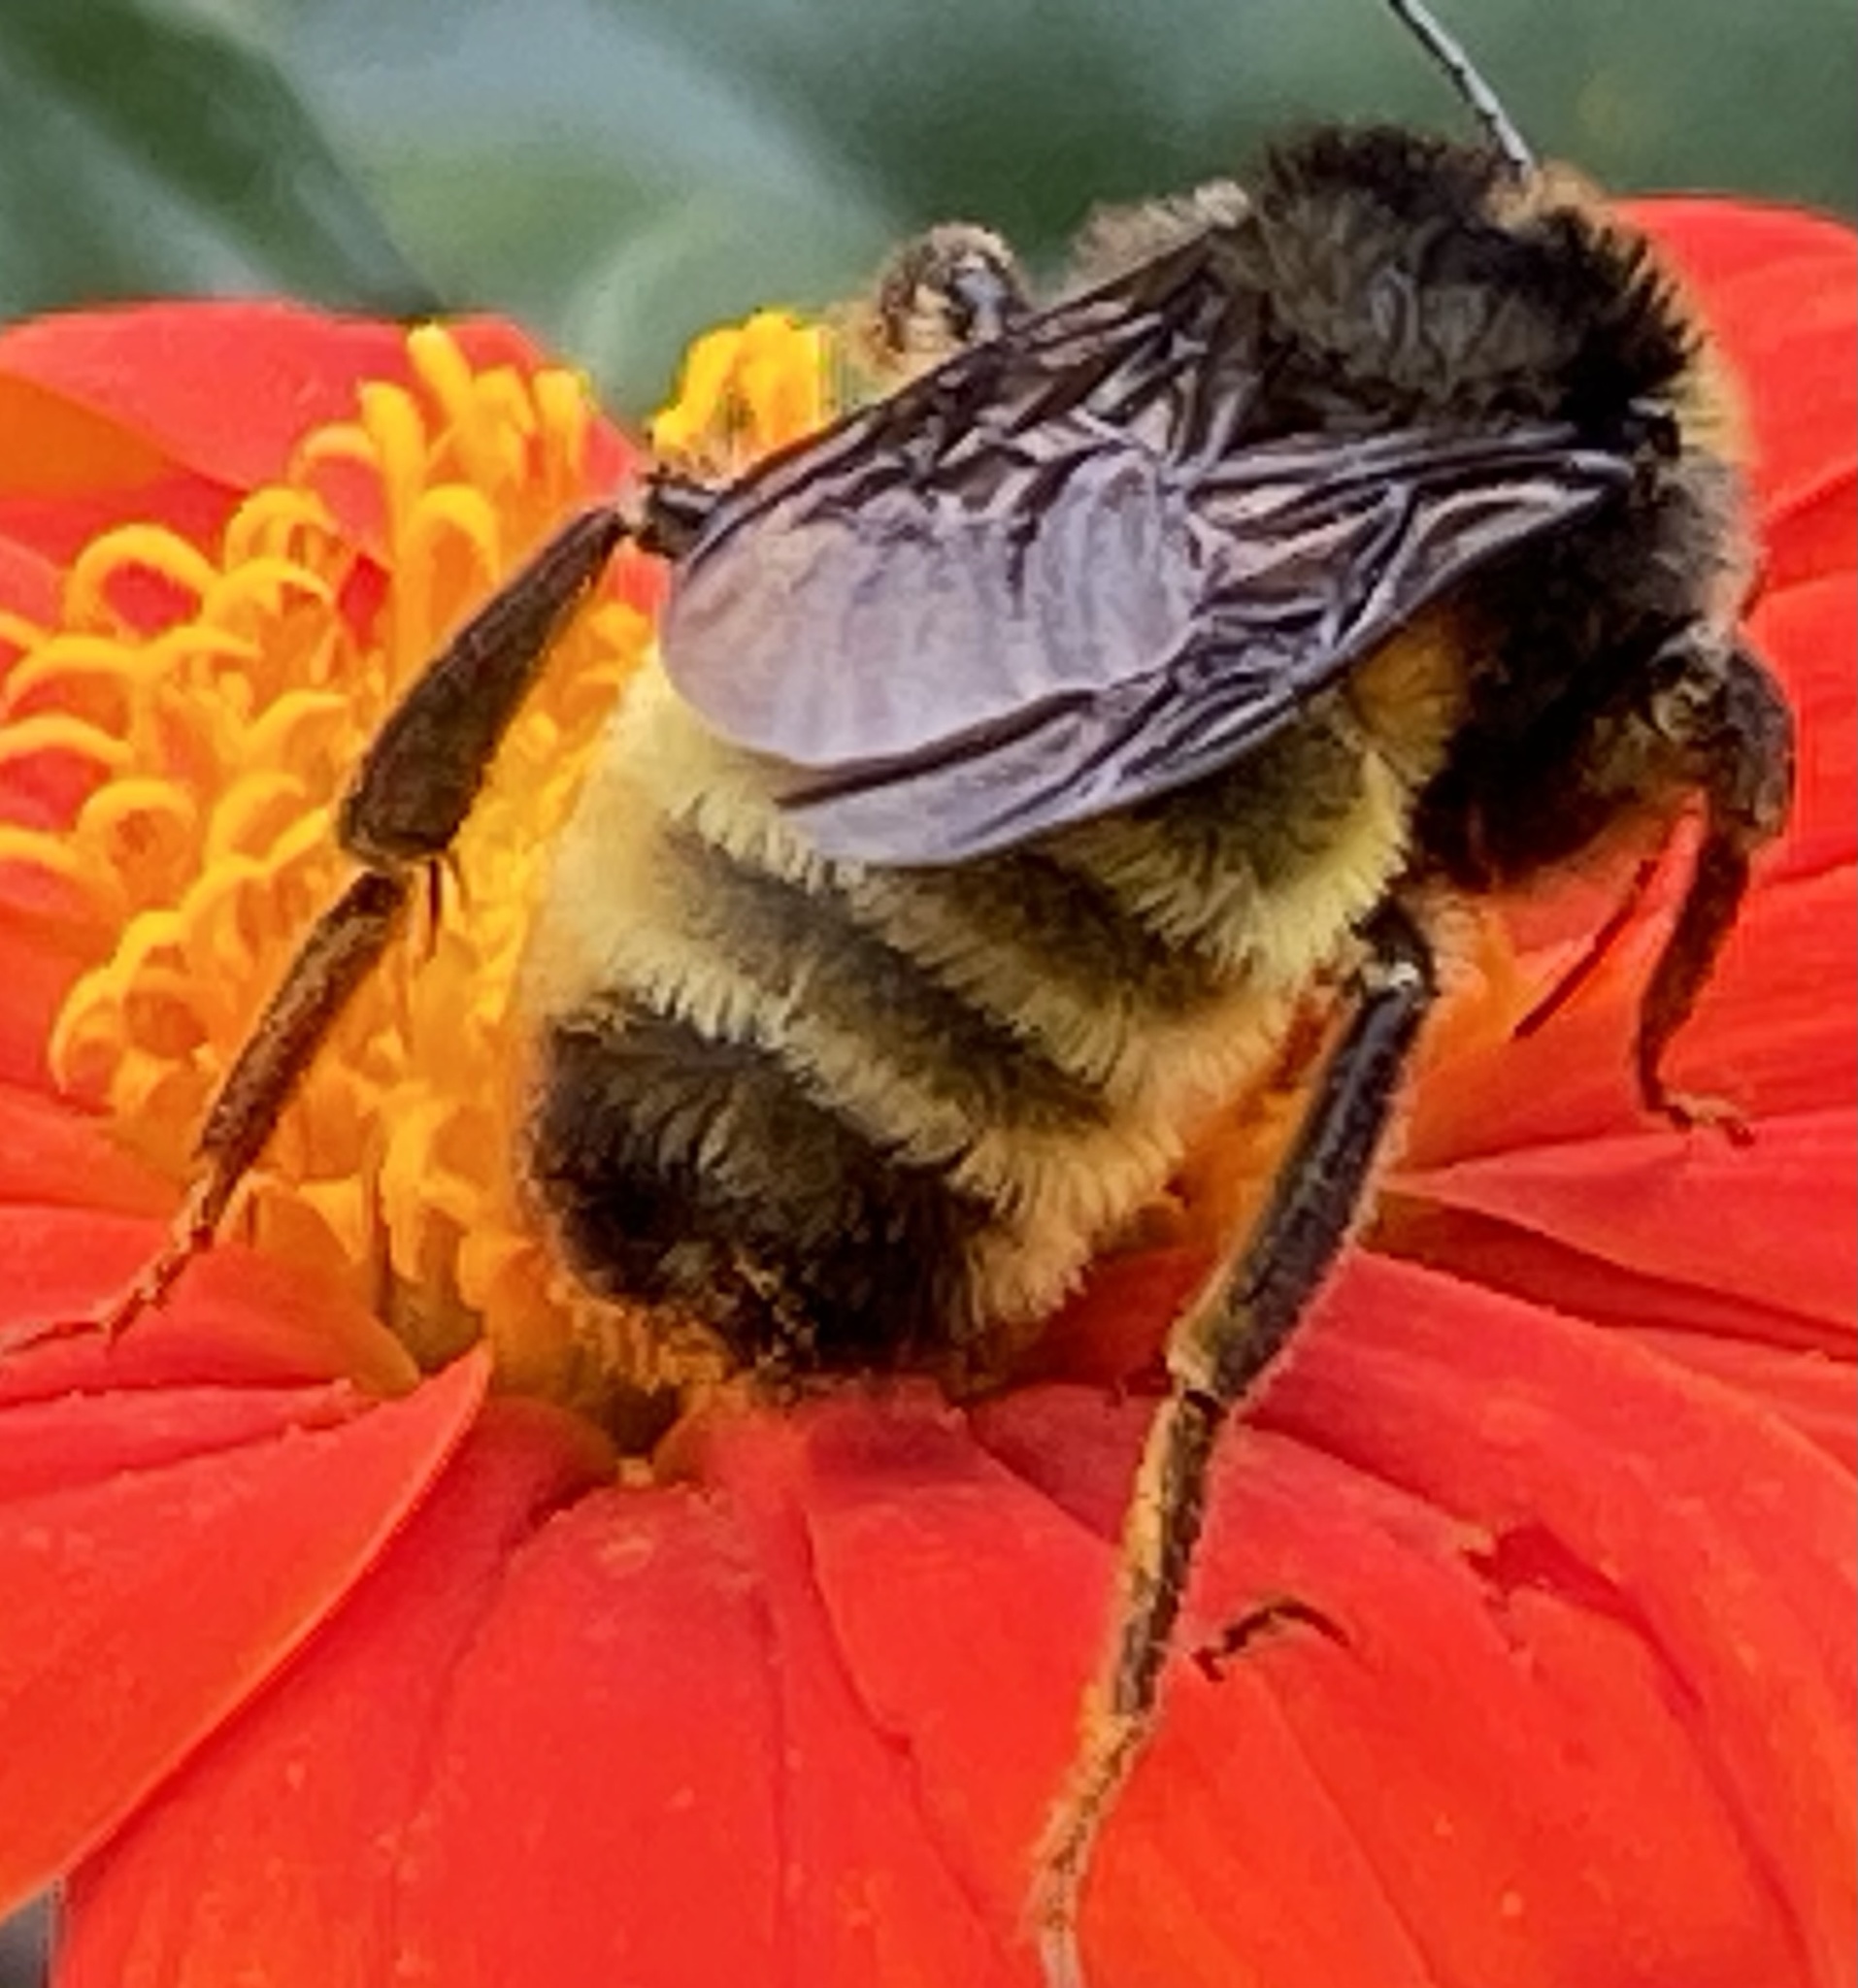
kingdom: Animalia
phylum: Arthropoda
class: Insecta
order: Hymenoptera
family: Apidae
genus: Bombus
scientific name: Bombus pensylvanicus
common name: Bumble bee
